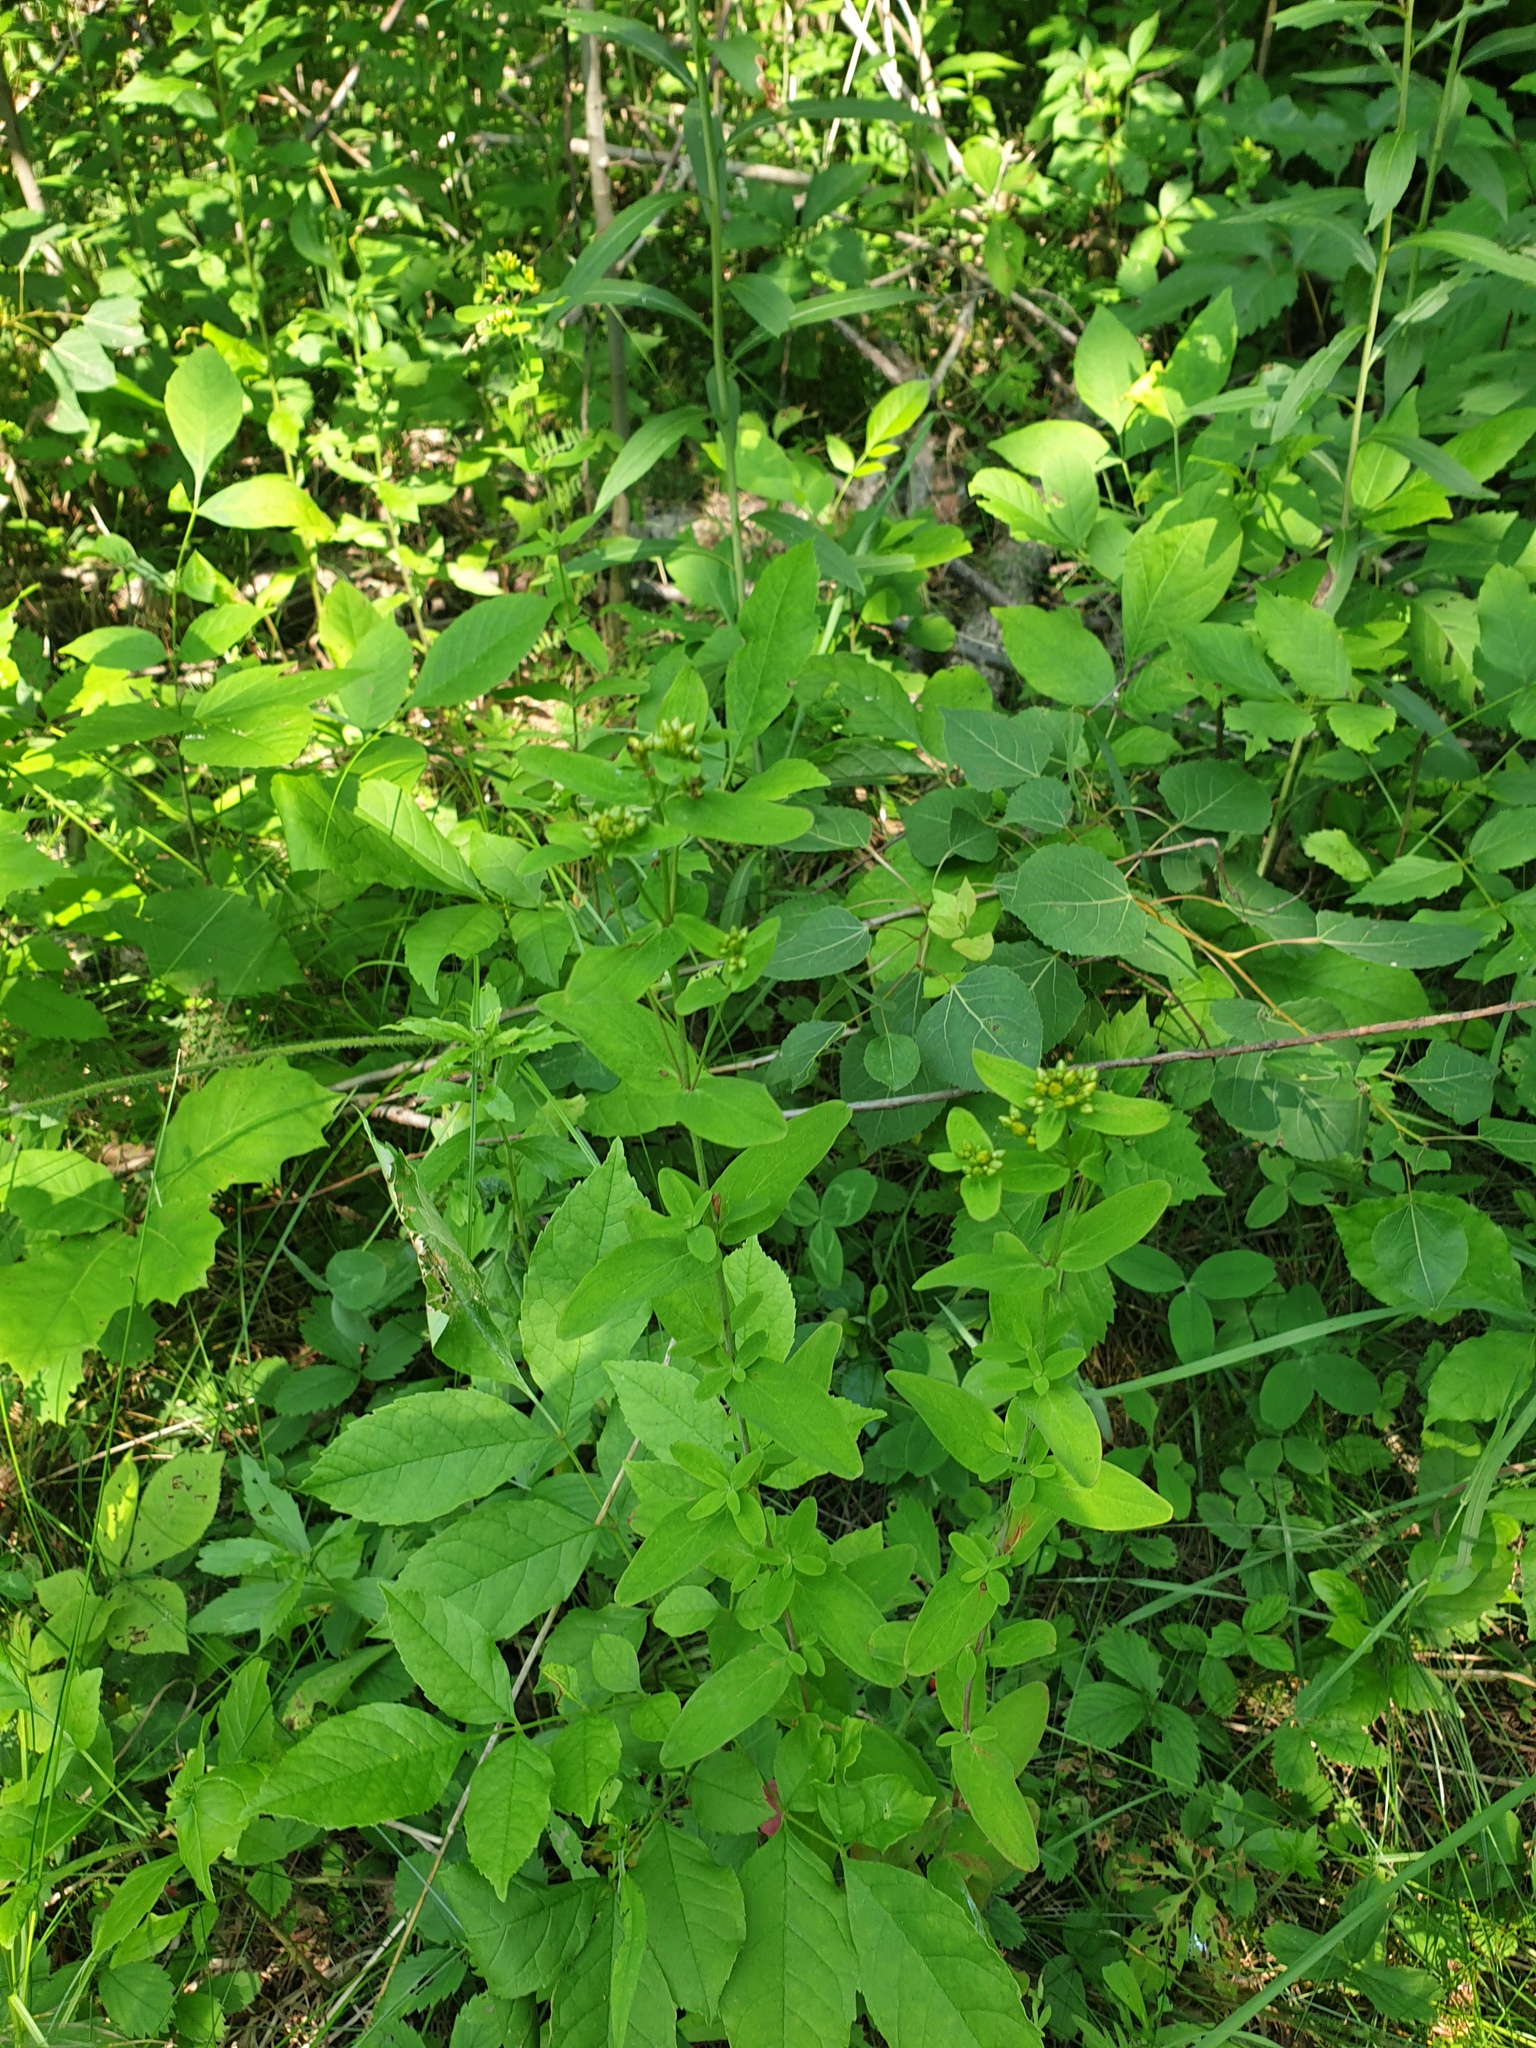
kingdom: Plantae
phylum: Tracheophyta
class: Magnoliopsida
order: Malpighiales
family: Hypericaceae
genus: Hypericum
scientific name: Hypericum punctatum
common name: Spotted st. john's-wort
